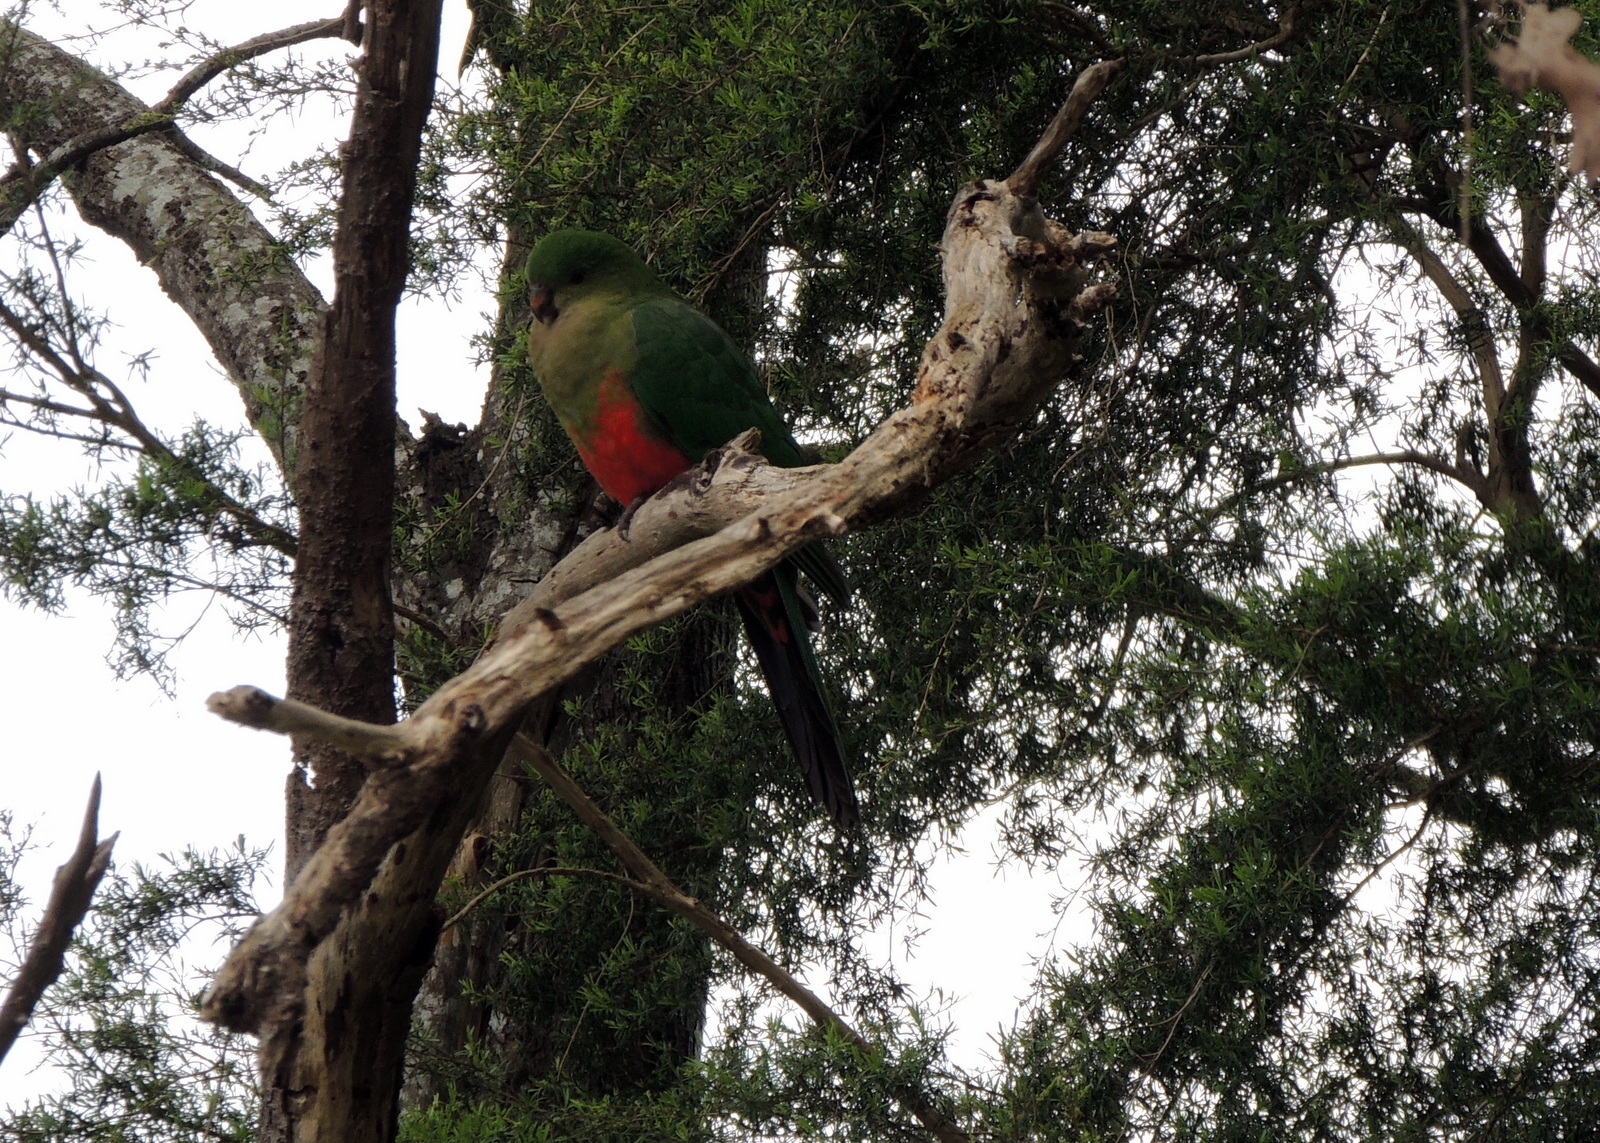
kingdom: Animalia
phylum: Chordata
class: Aves
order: Psittaciformes
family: Psittacidae
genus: Alisterus
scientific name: Alisterus scapularis
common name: Australian king parrot
